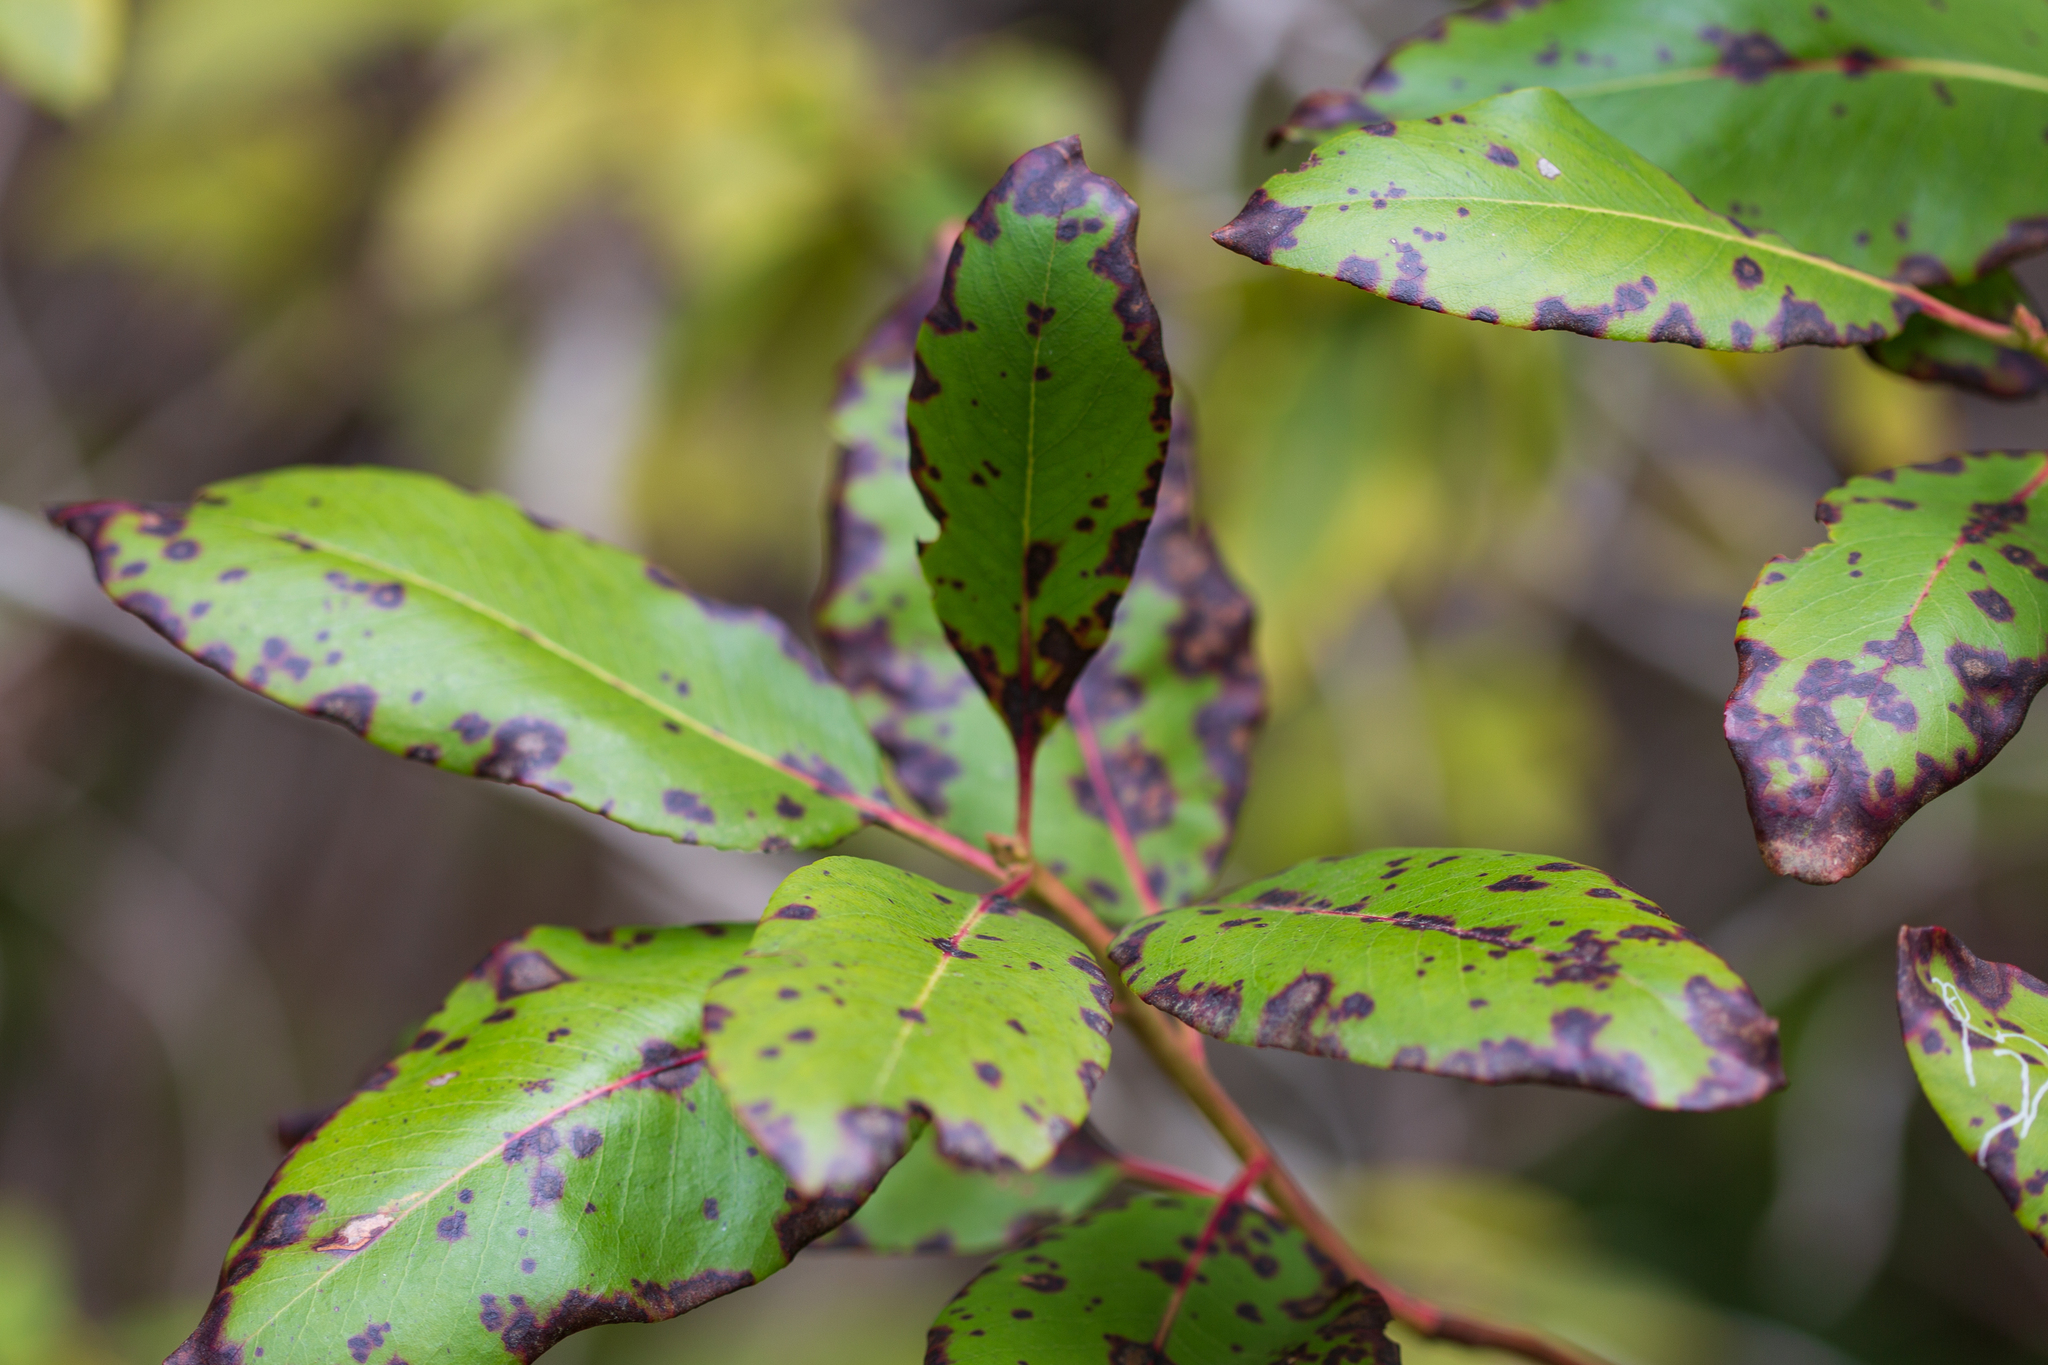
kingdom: Plantae
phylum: Tracheophyta
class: Magnoliopsida
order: Ericales
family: Ericaceae
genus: Arbutus
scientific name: Arbutus menziesii
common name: Pacific madrone
